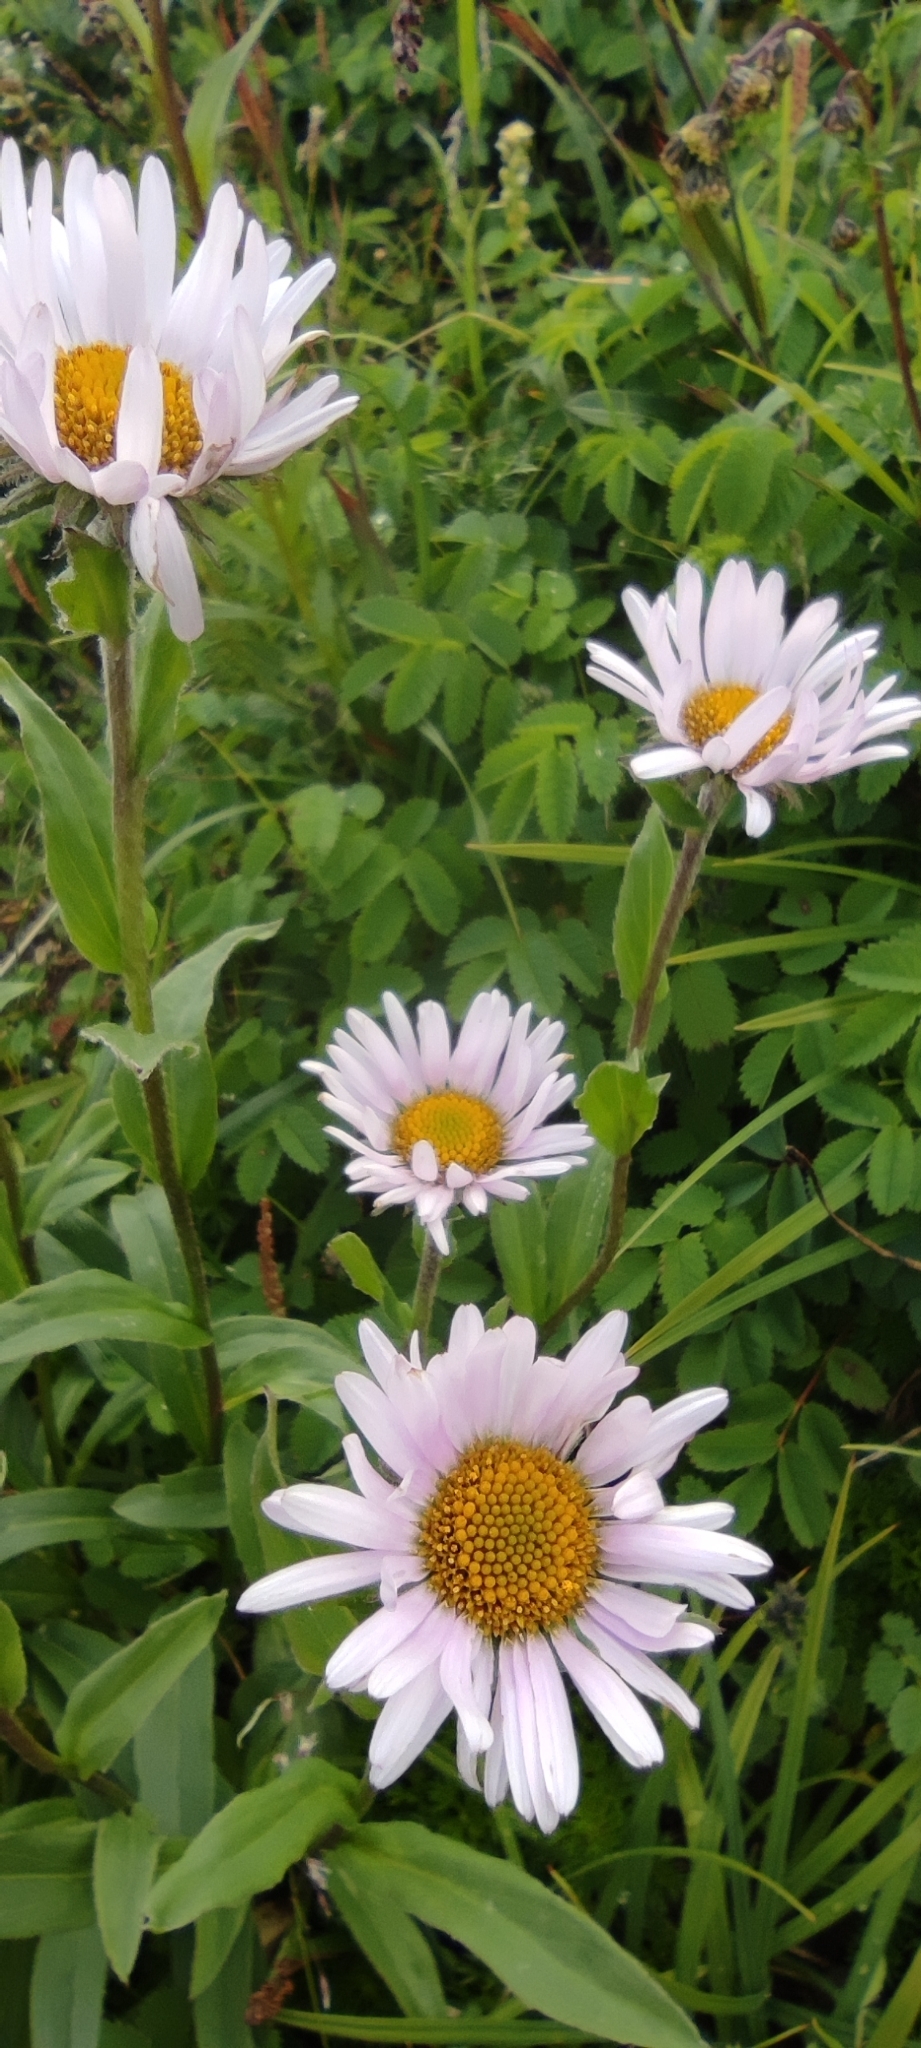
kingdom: Plantae
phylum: Tracheophyta
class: Magnoliopsida
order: Asterales
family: Asteraceae
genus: Erigeron
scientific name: Erigeron peregrinus
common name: Peregrine fleabane
